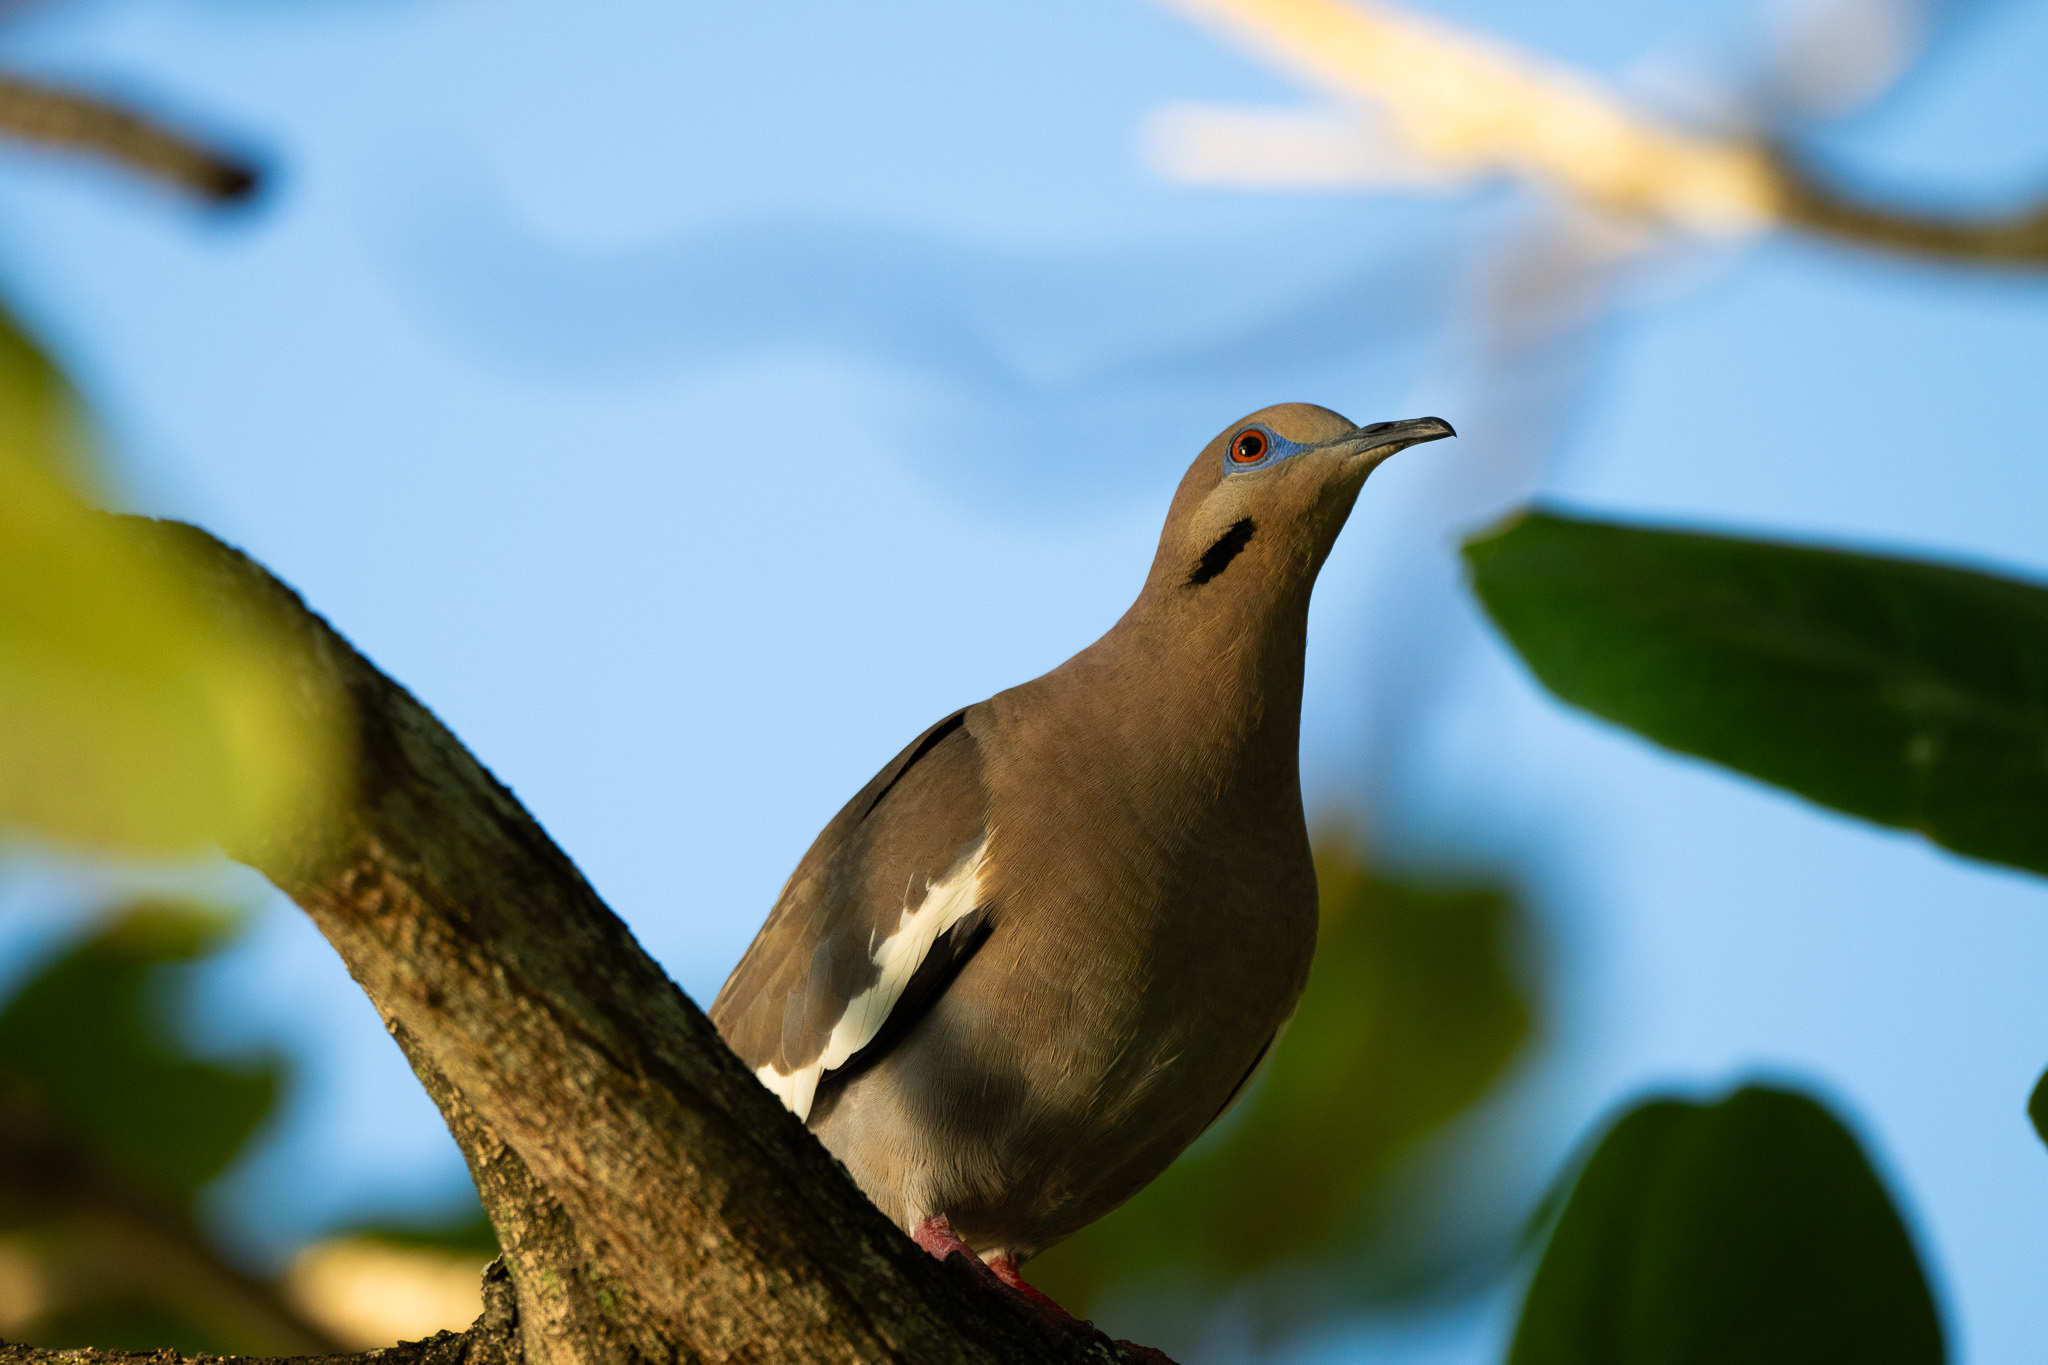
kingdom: Animalia
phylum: Chordata
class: Aves
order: Columbiformes
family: Columbidae
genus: Zenaida
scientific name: Zenaida asiatica
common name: White-winged dove
